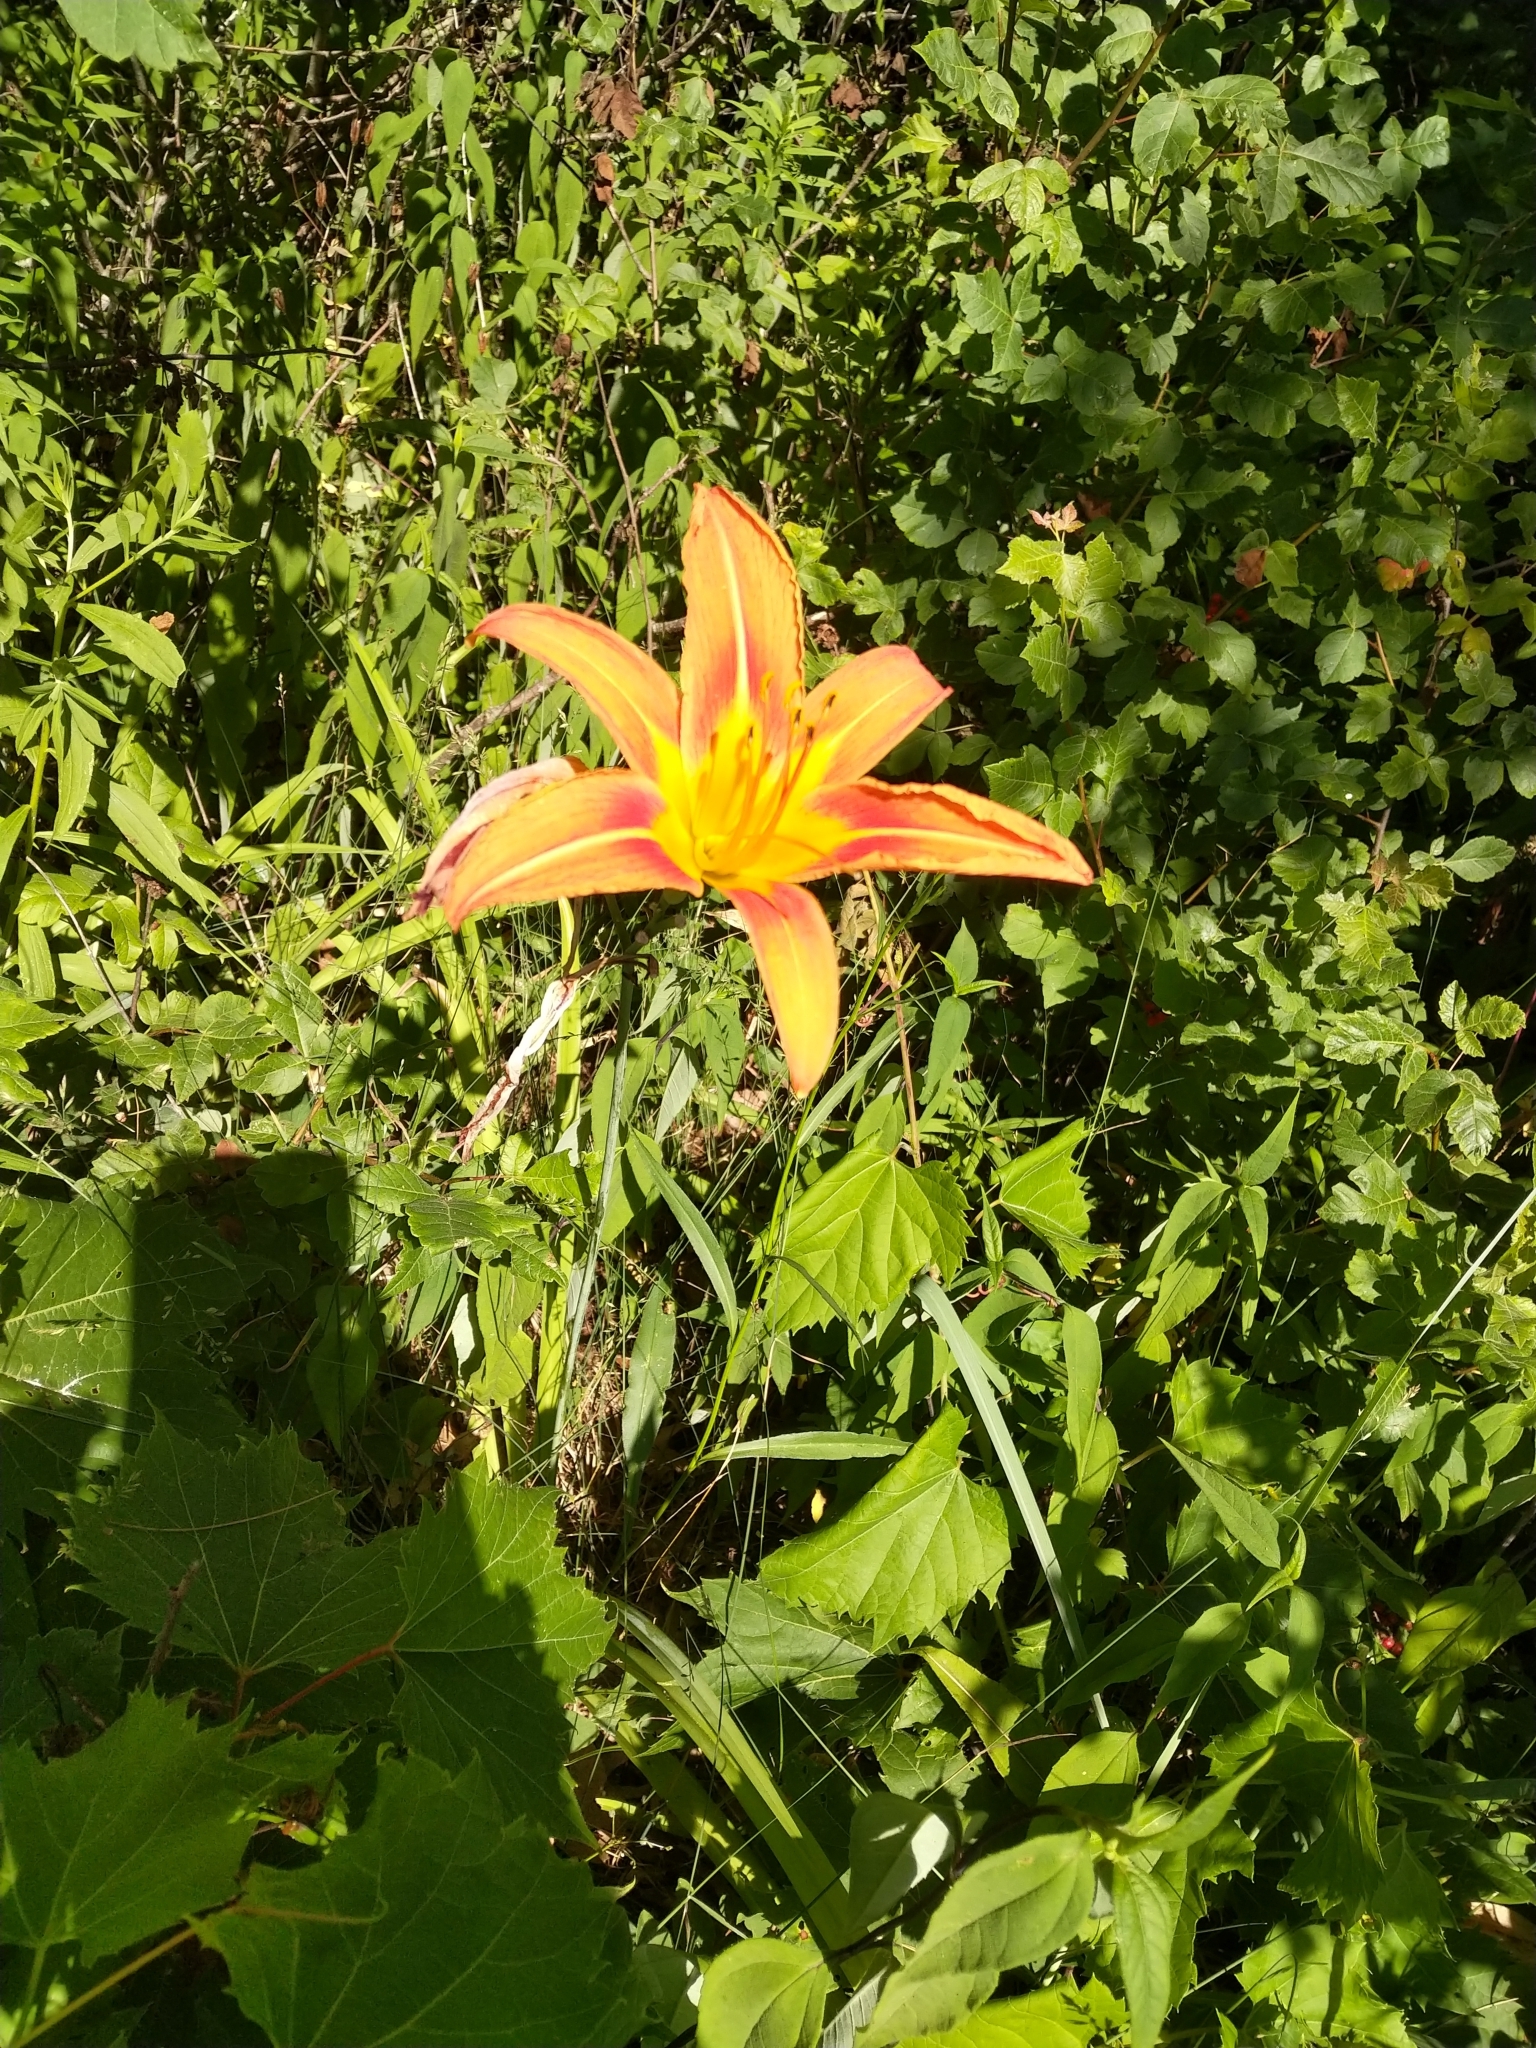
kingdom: Plantae
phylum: Tracheophyta
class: Liliopsida
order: Asparagales
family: Asphodelaceae
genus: Hemerocallis
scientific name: Hemerocallis fulva
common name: Orange day-lily
